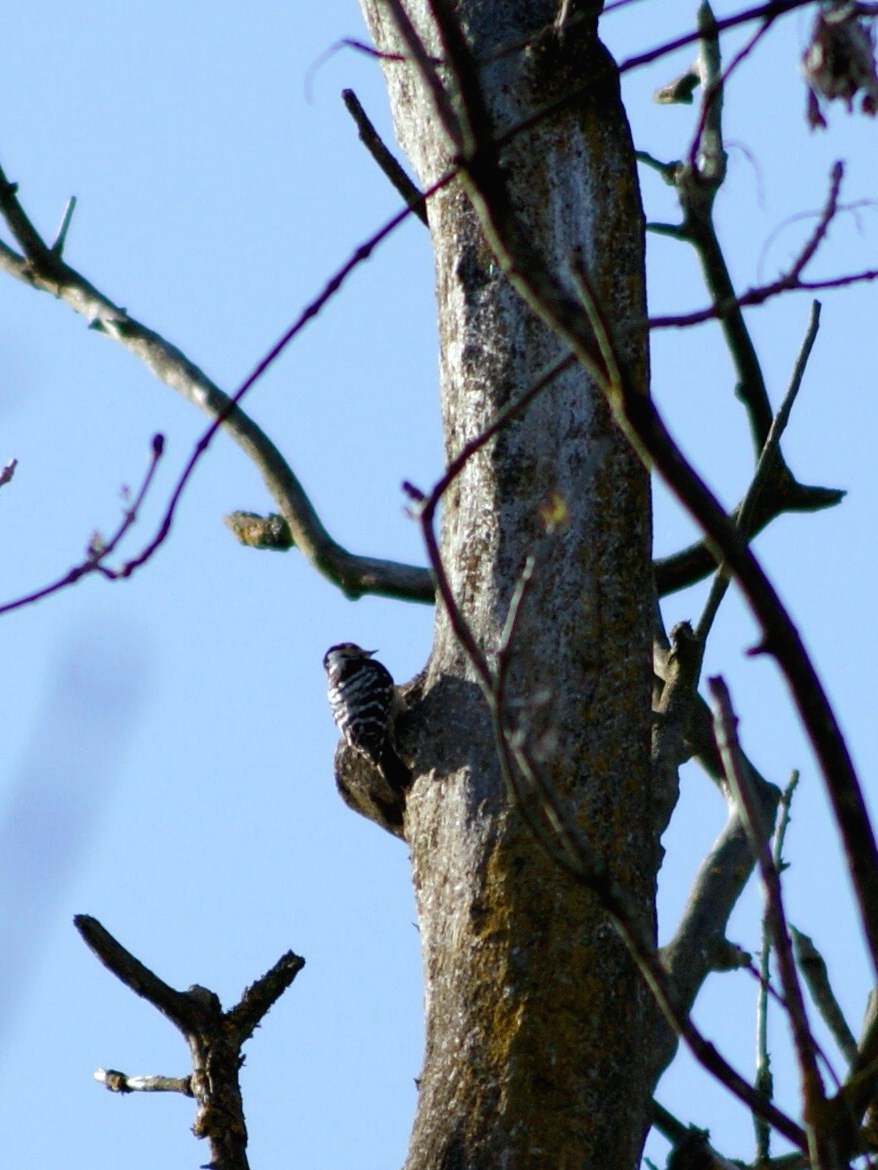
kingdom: Animalia
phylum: Chordata
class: Aves
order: Piciformes
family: Picidae
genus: Dryobates
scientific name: Dryobates minor
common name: Lesser spotted woodpecker
